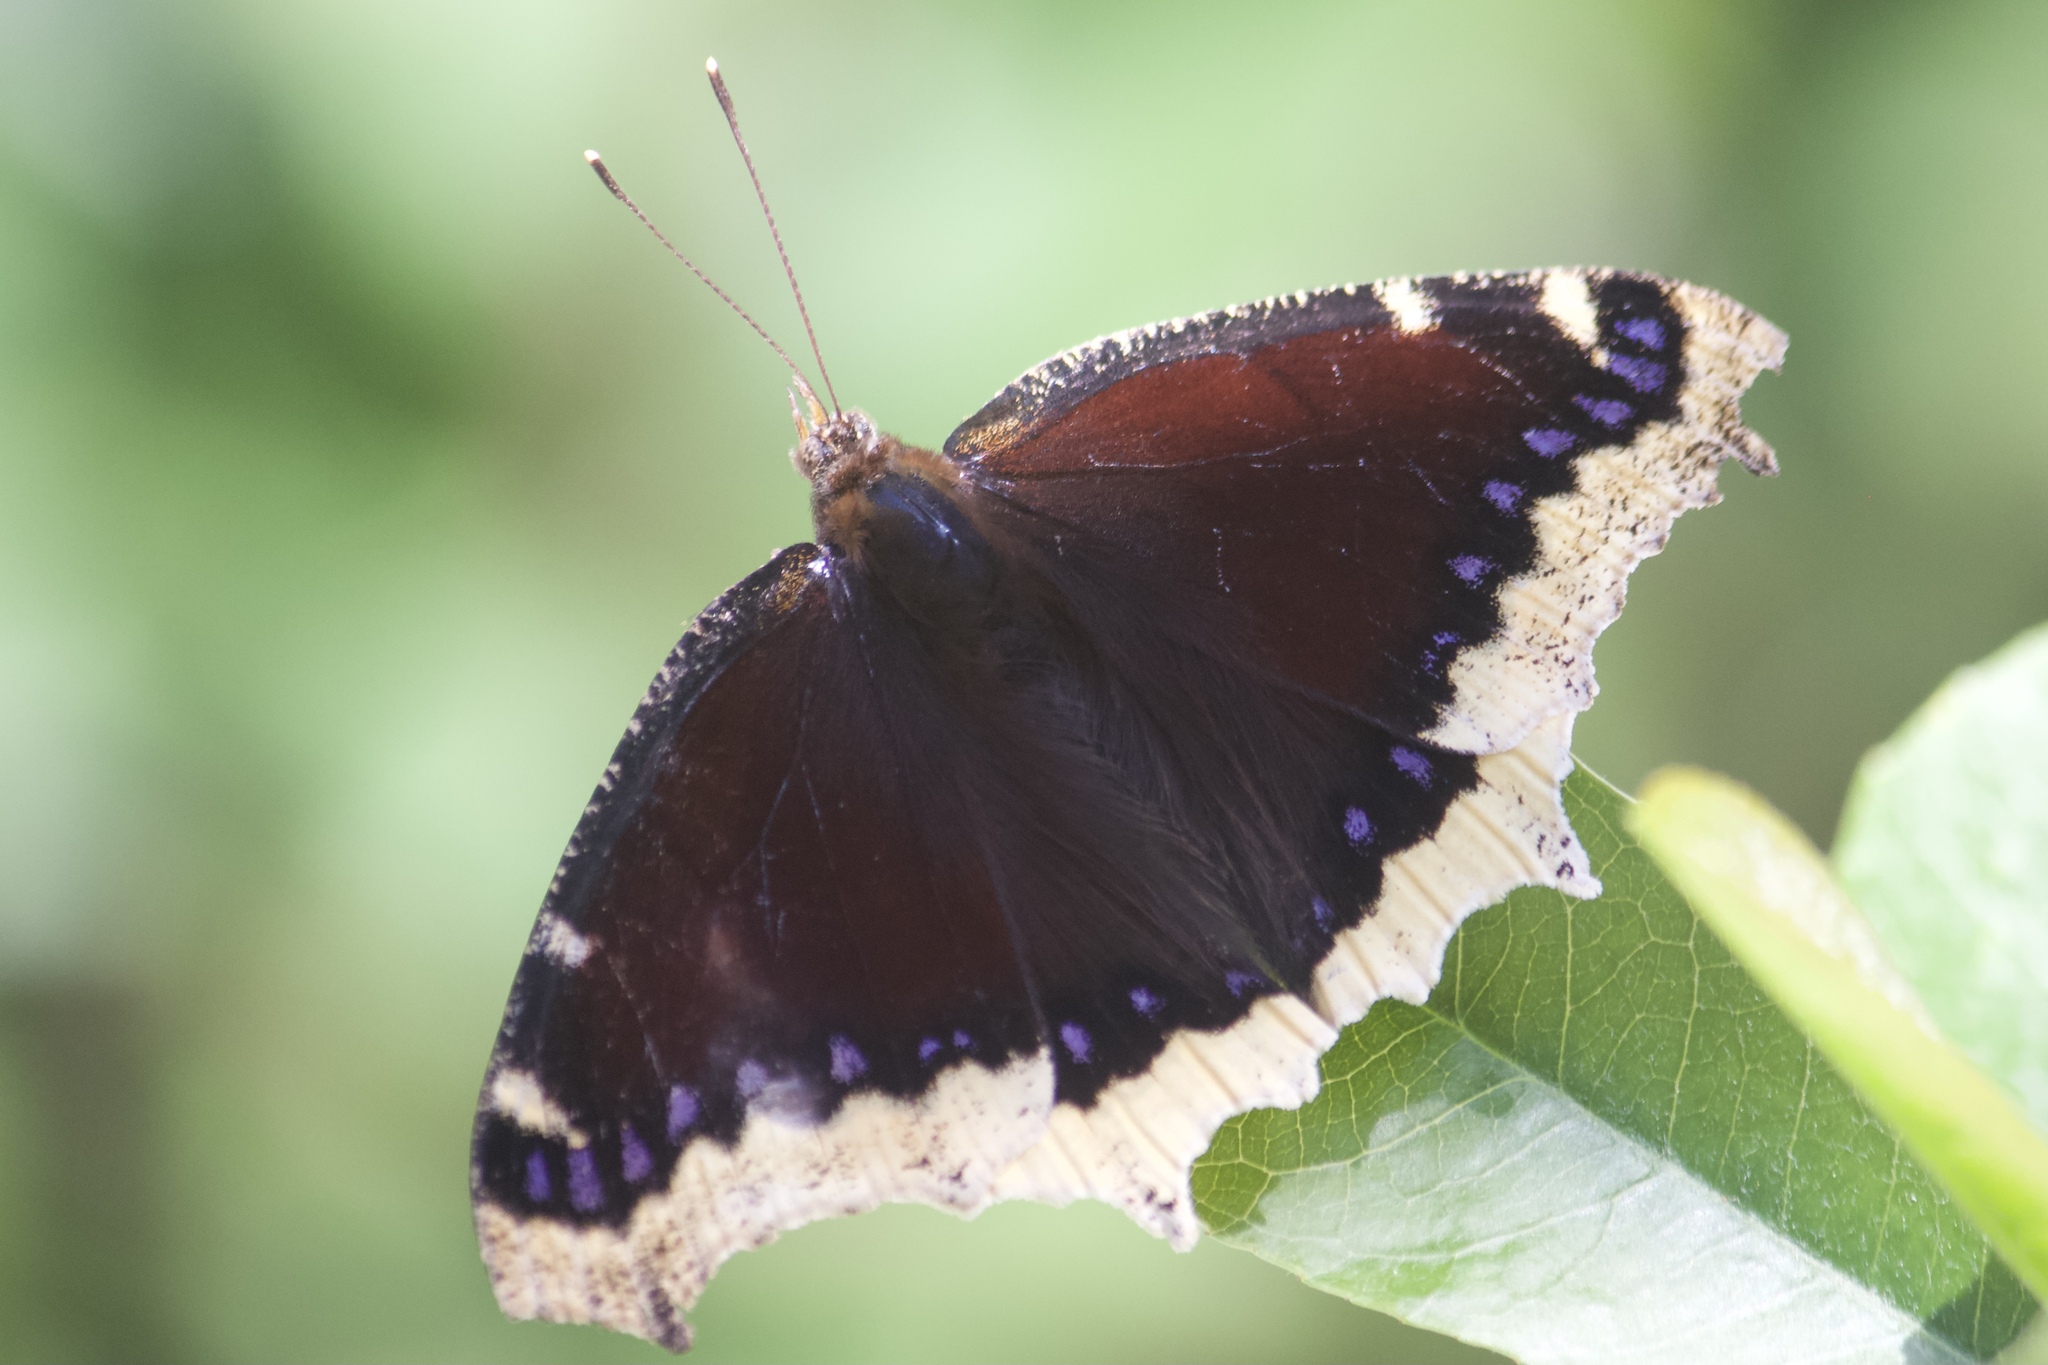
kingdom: Animalia
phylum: Arthropoda
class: Insecta
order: Lepidoptera
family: Nymphalidae
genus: Nymphalis
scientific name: Nymphalis antiopa
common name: Camberwell beauty
